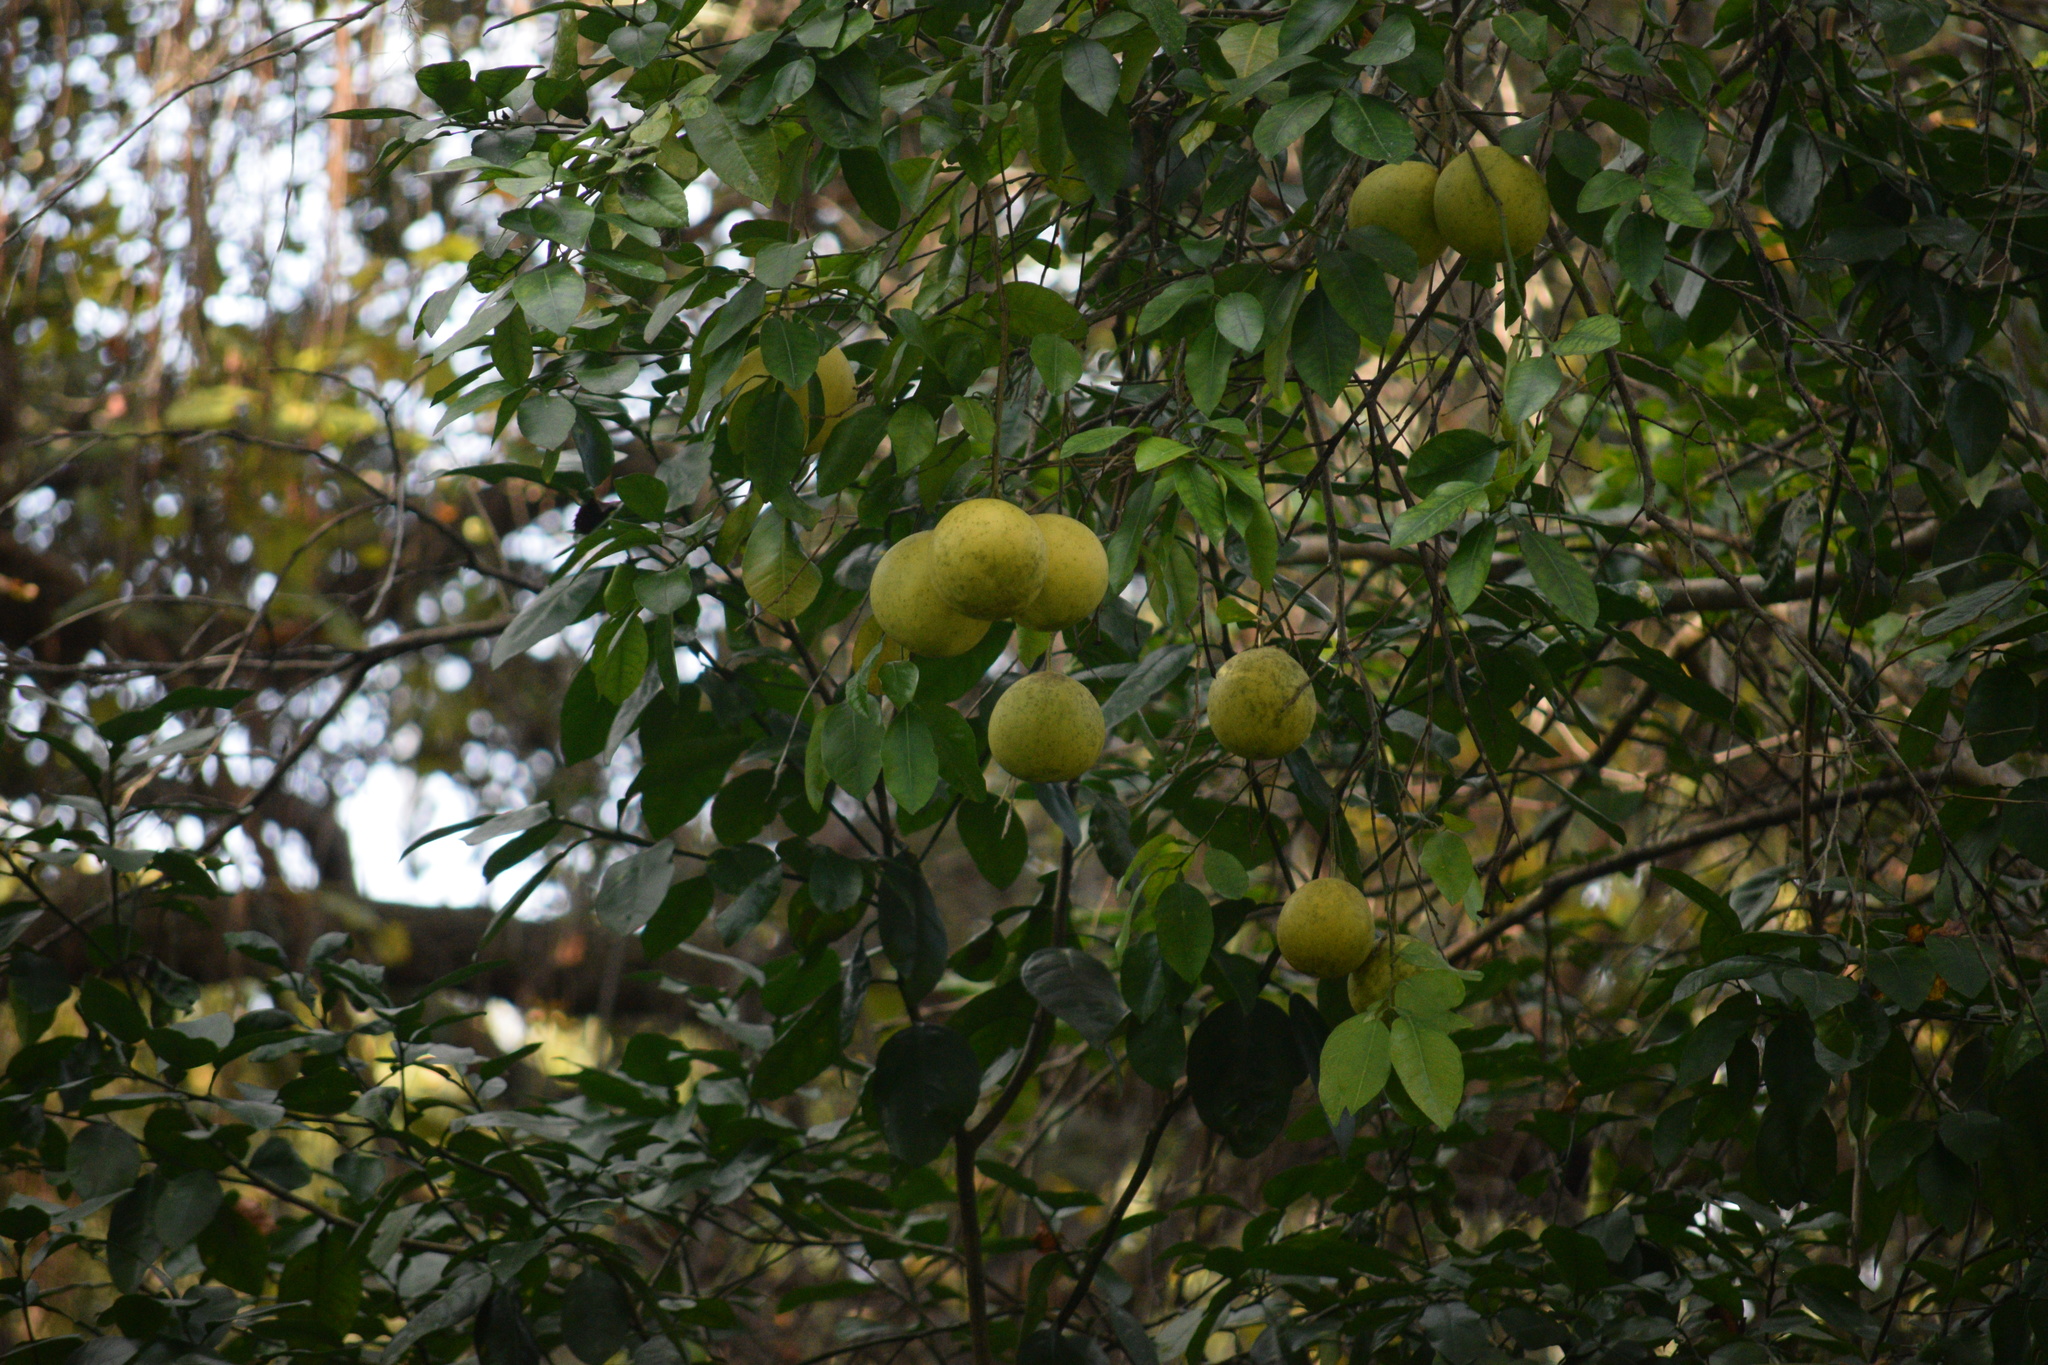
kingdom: Plantae
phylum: Tracheophyta
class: Magnoliopsida
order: Sapindales
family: Rutaceae
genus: Citrus
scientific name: Citrus aurantium
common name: Sour orange
